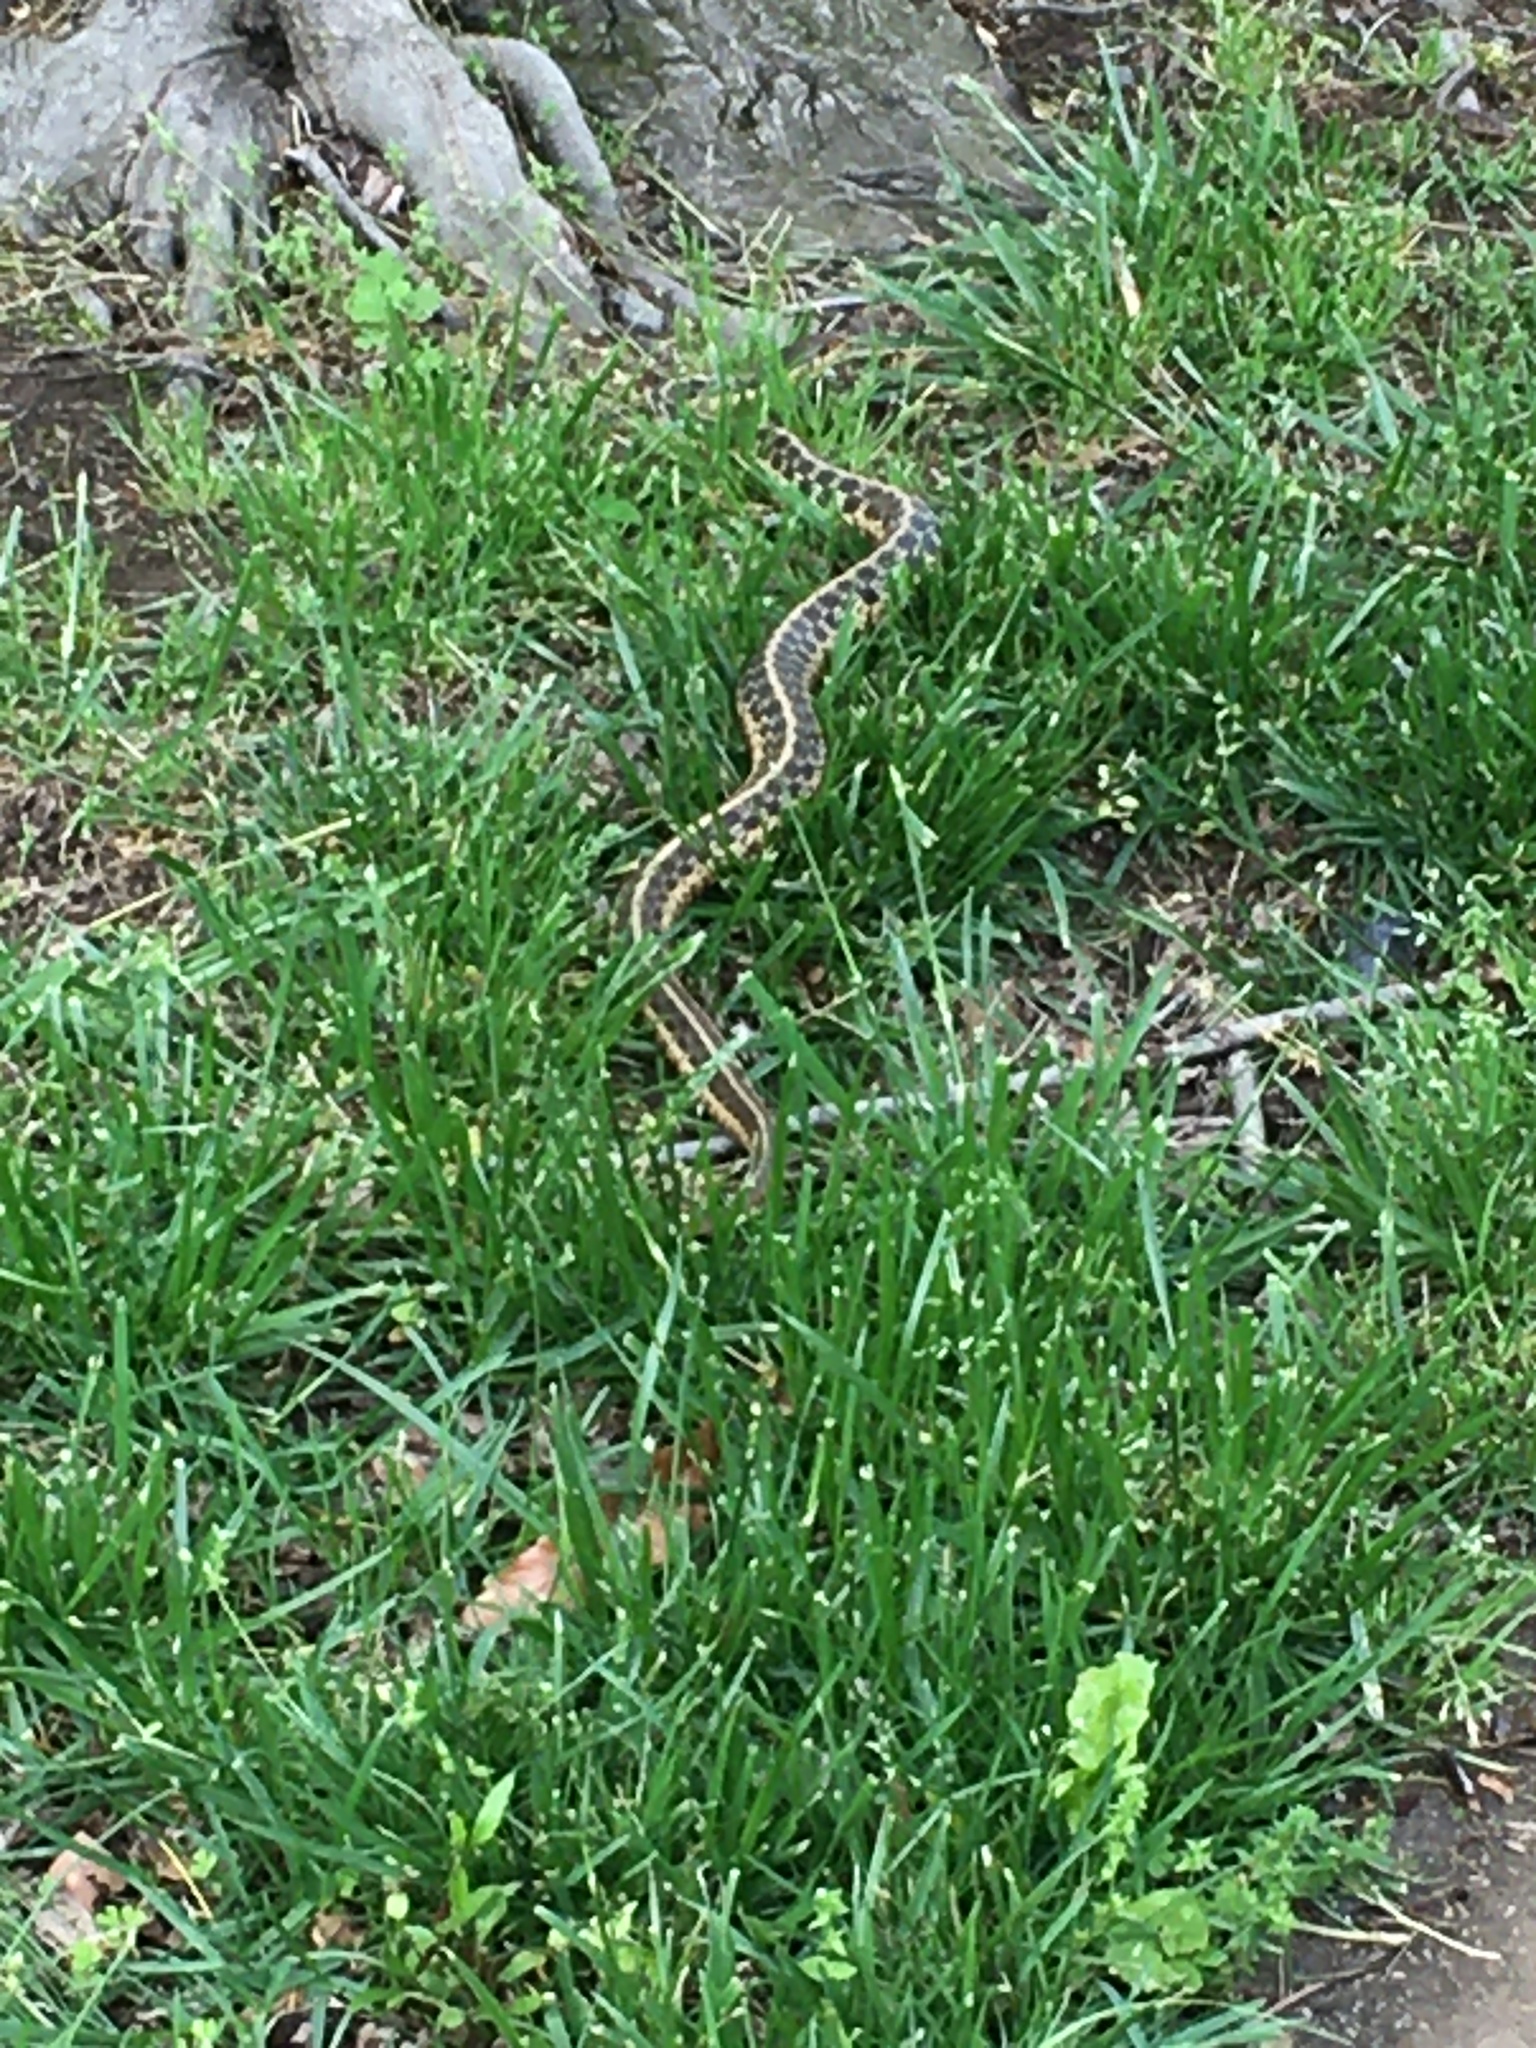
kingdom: Animalia
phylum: Chordata
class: Squamata
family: Colubridae
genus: Thamnophis
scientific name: Thamnophis sirtalis
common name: Common garter snake
